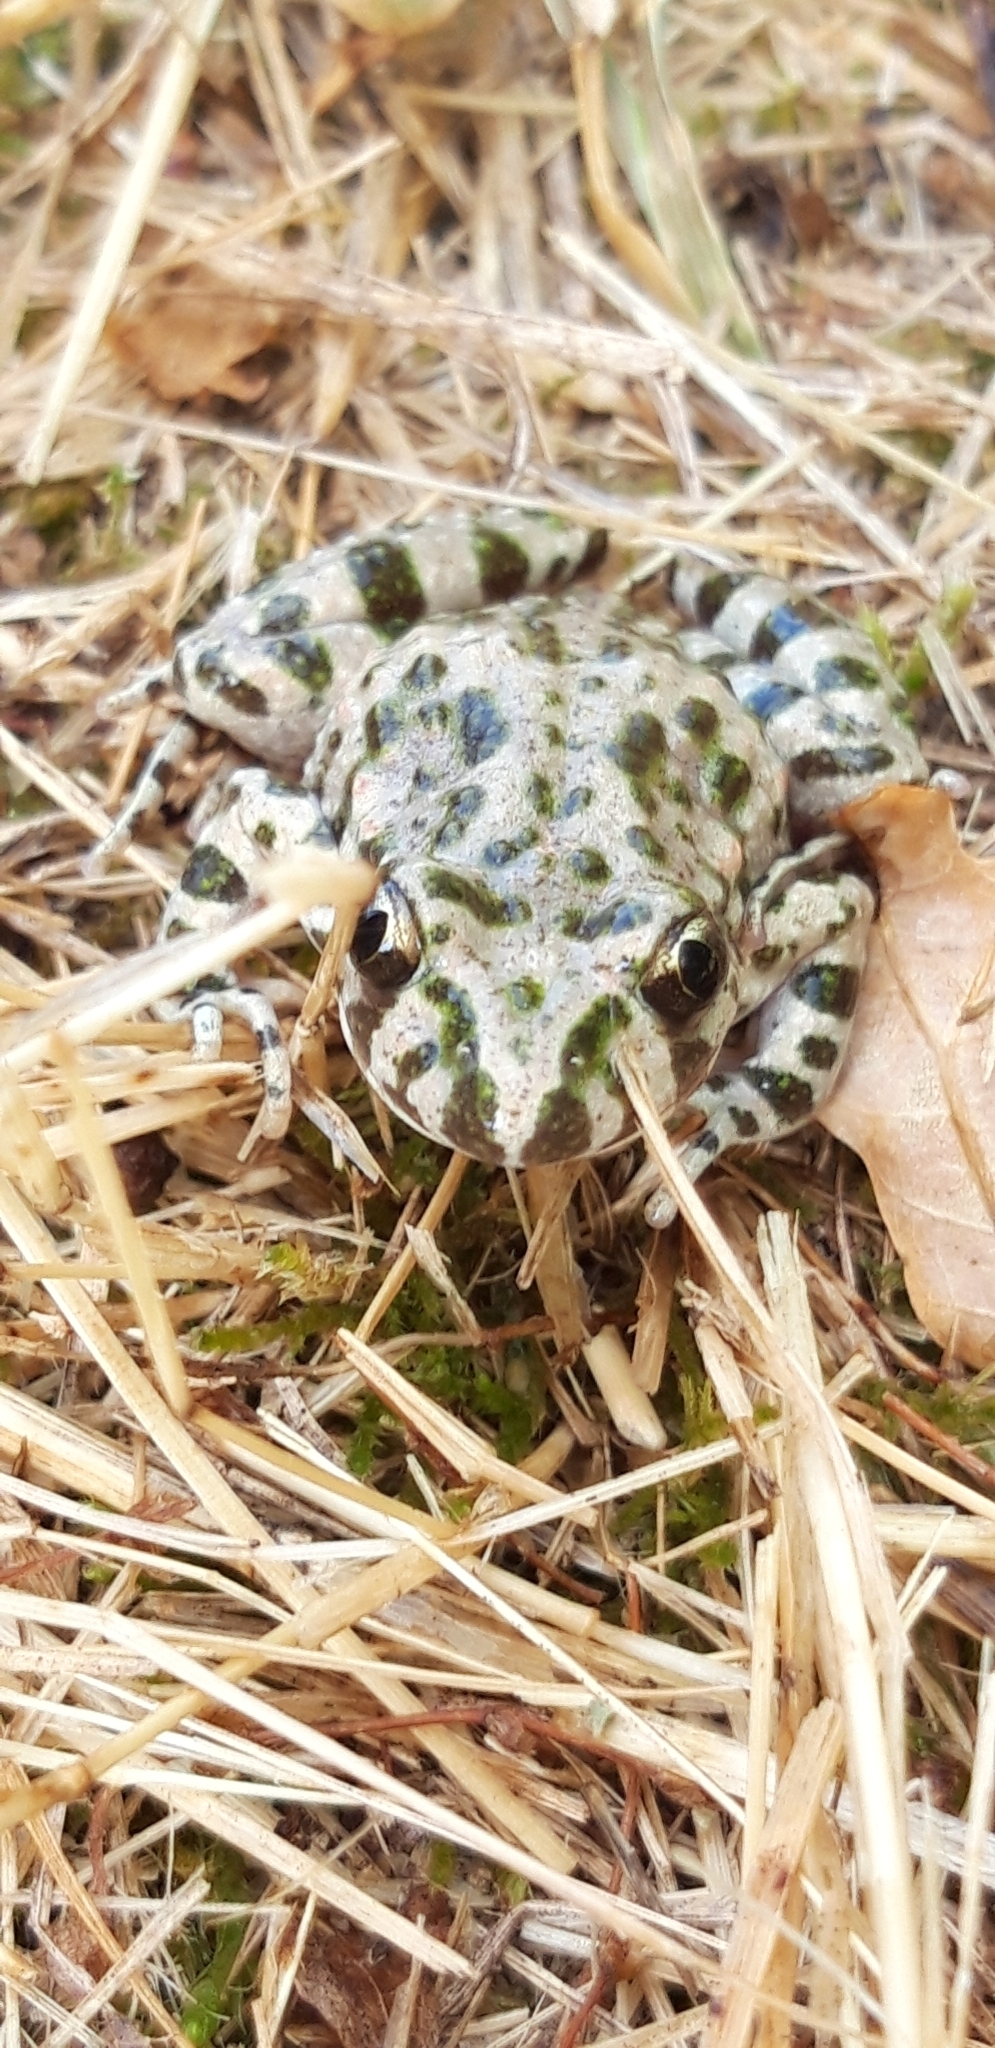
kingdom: Animalia
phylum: Chordata
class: Amphibia
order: Anura
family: Pelodytidae
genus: Pelodytes
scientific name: Pelodytes punctatus
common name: Parsley frog
